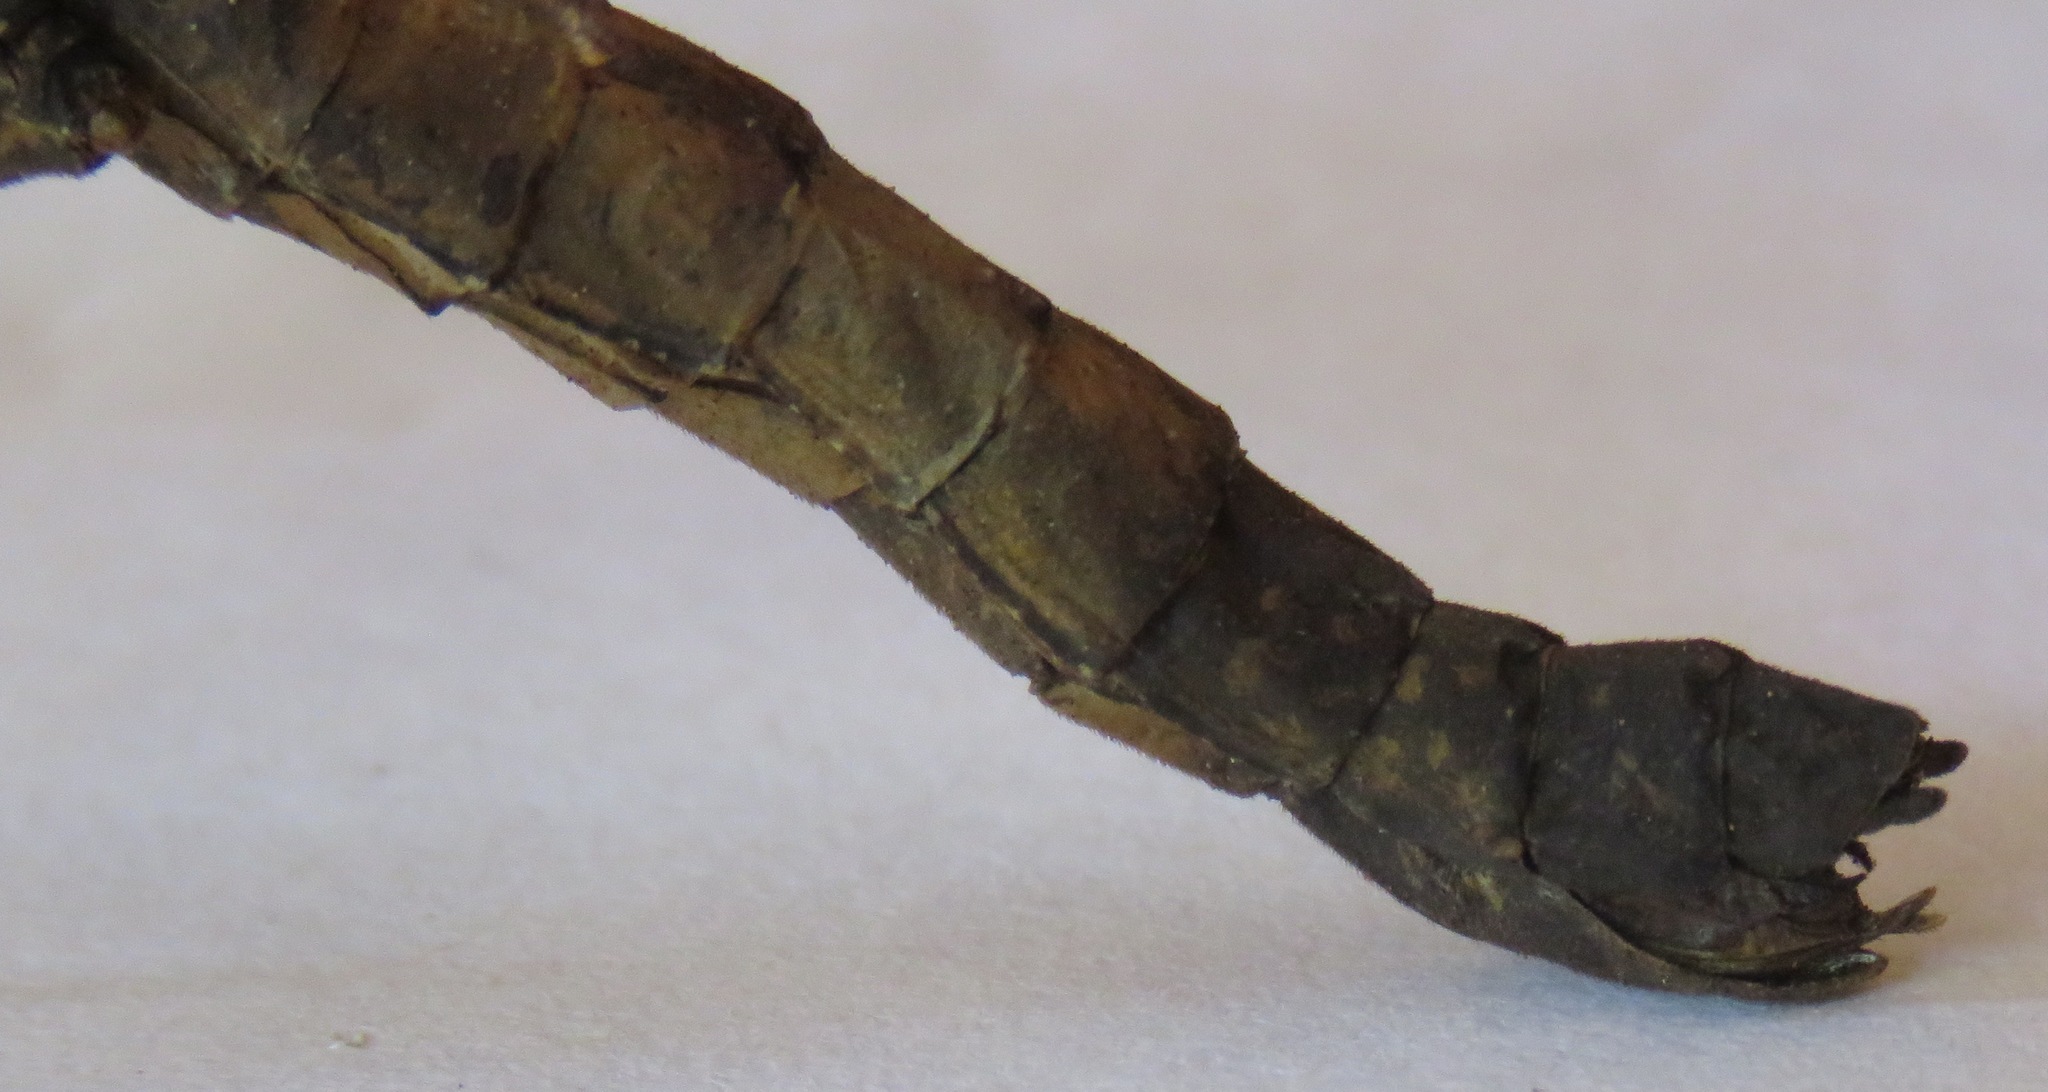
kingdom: Animalia
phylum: Arthropoda
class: Insecta
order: Phasmida
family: Pseudophasmatidae
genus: Urucumania
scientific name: Urucumania borellii
